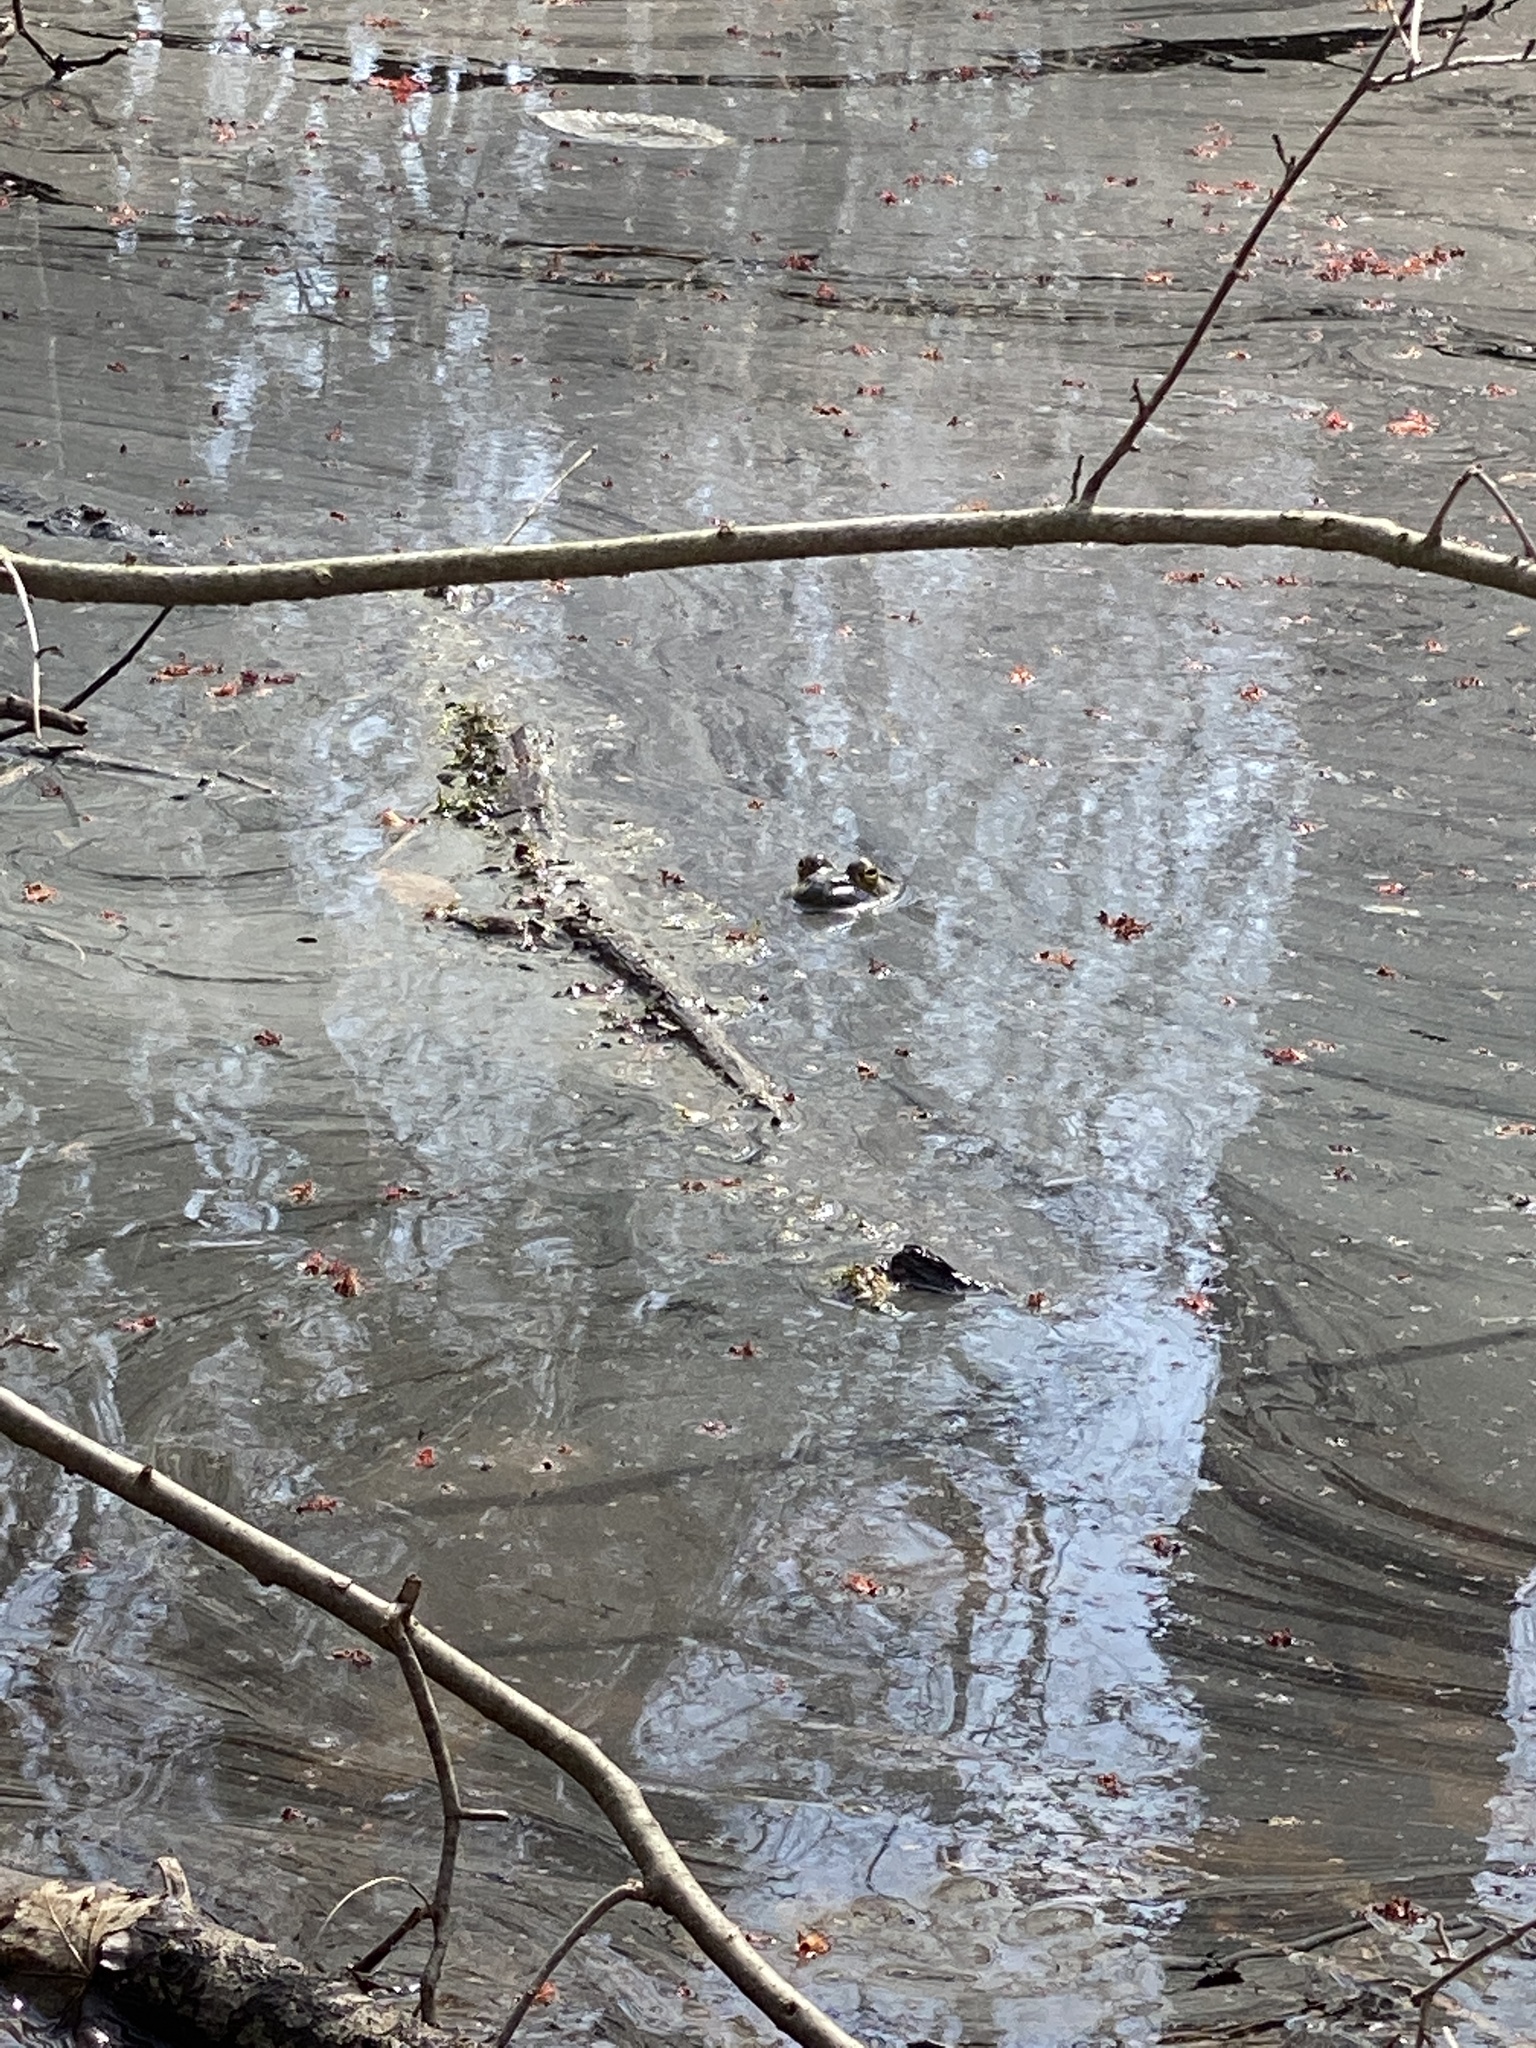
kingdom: Animalia
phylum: Chordata
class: Amphibia
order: Anura
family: Ranidae
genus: Lithobates
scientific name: Lithobates
